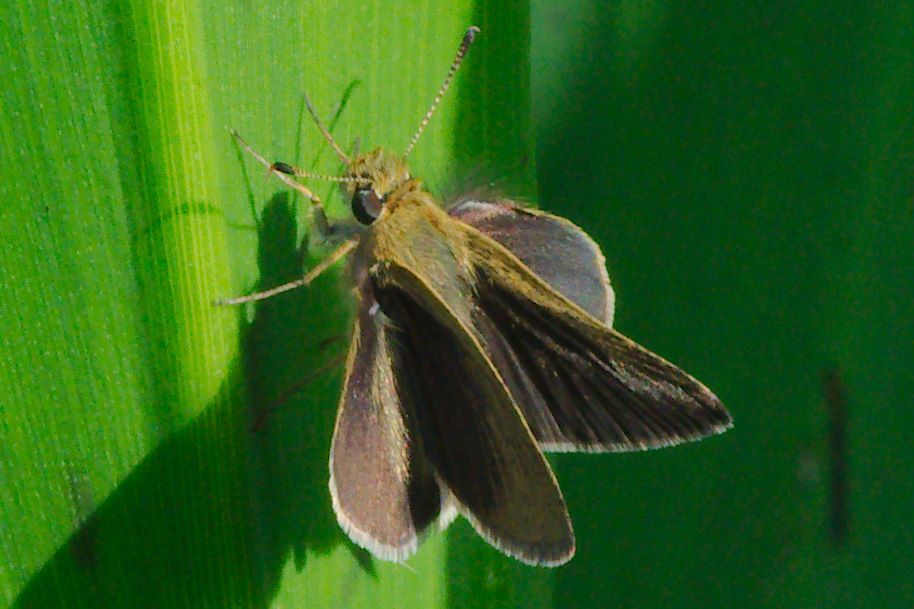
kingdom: Animalia
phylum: Arthropoda
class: Insecta
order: Lepidoptera
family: Hesperiidae
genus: Nastra
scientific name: Nastra lherminier
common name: Swarthy skipper
